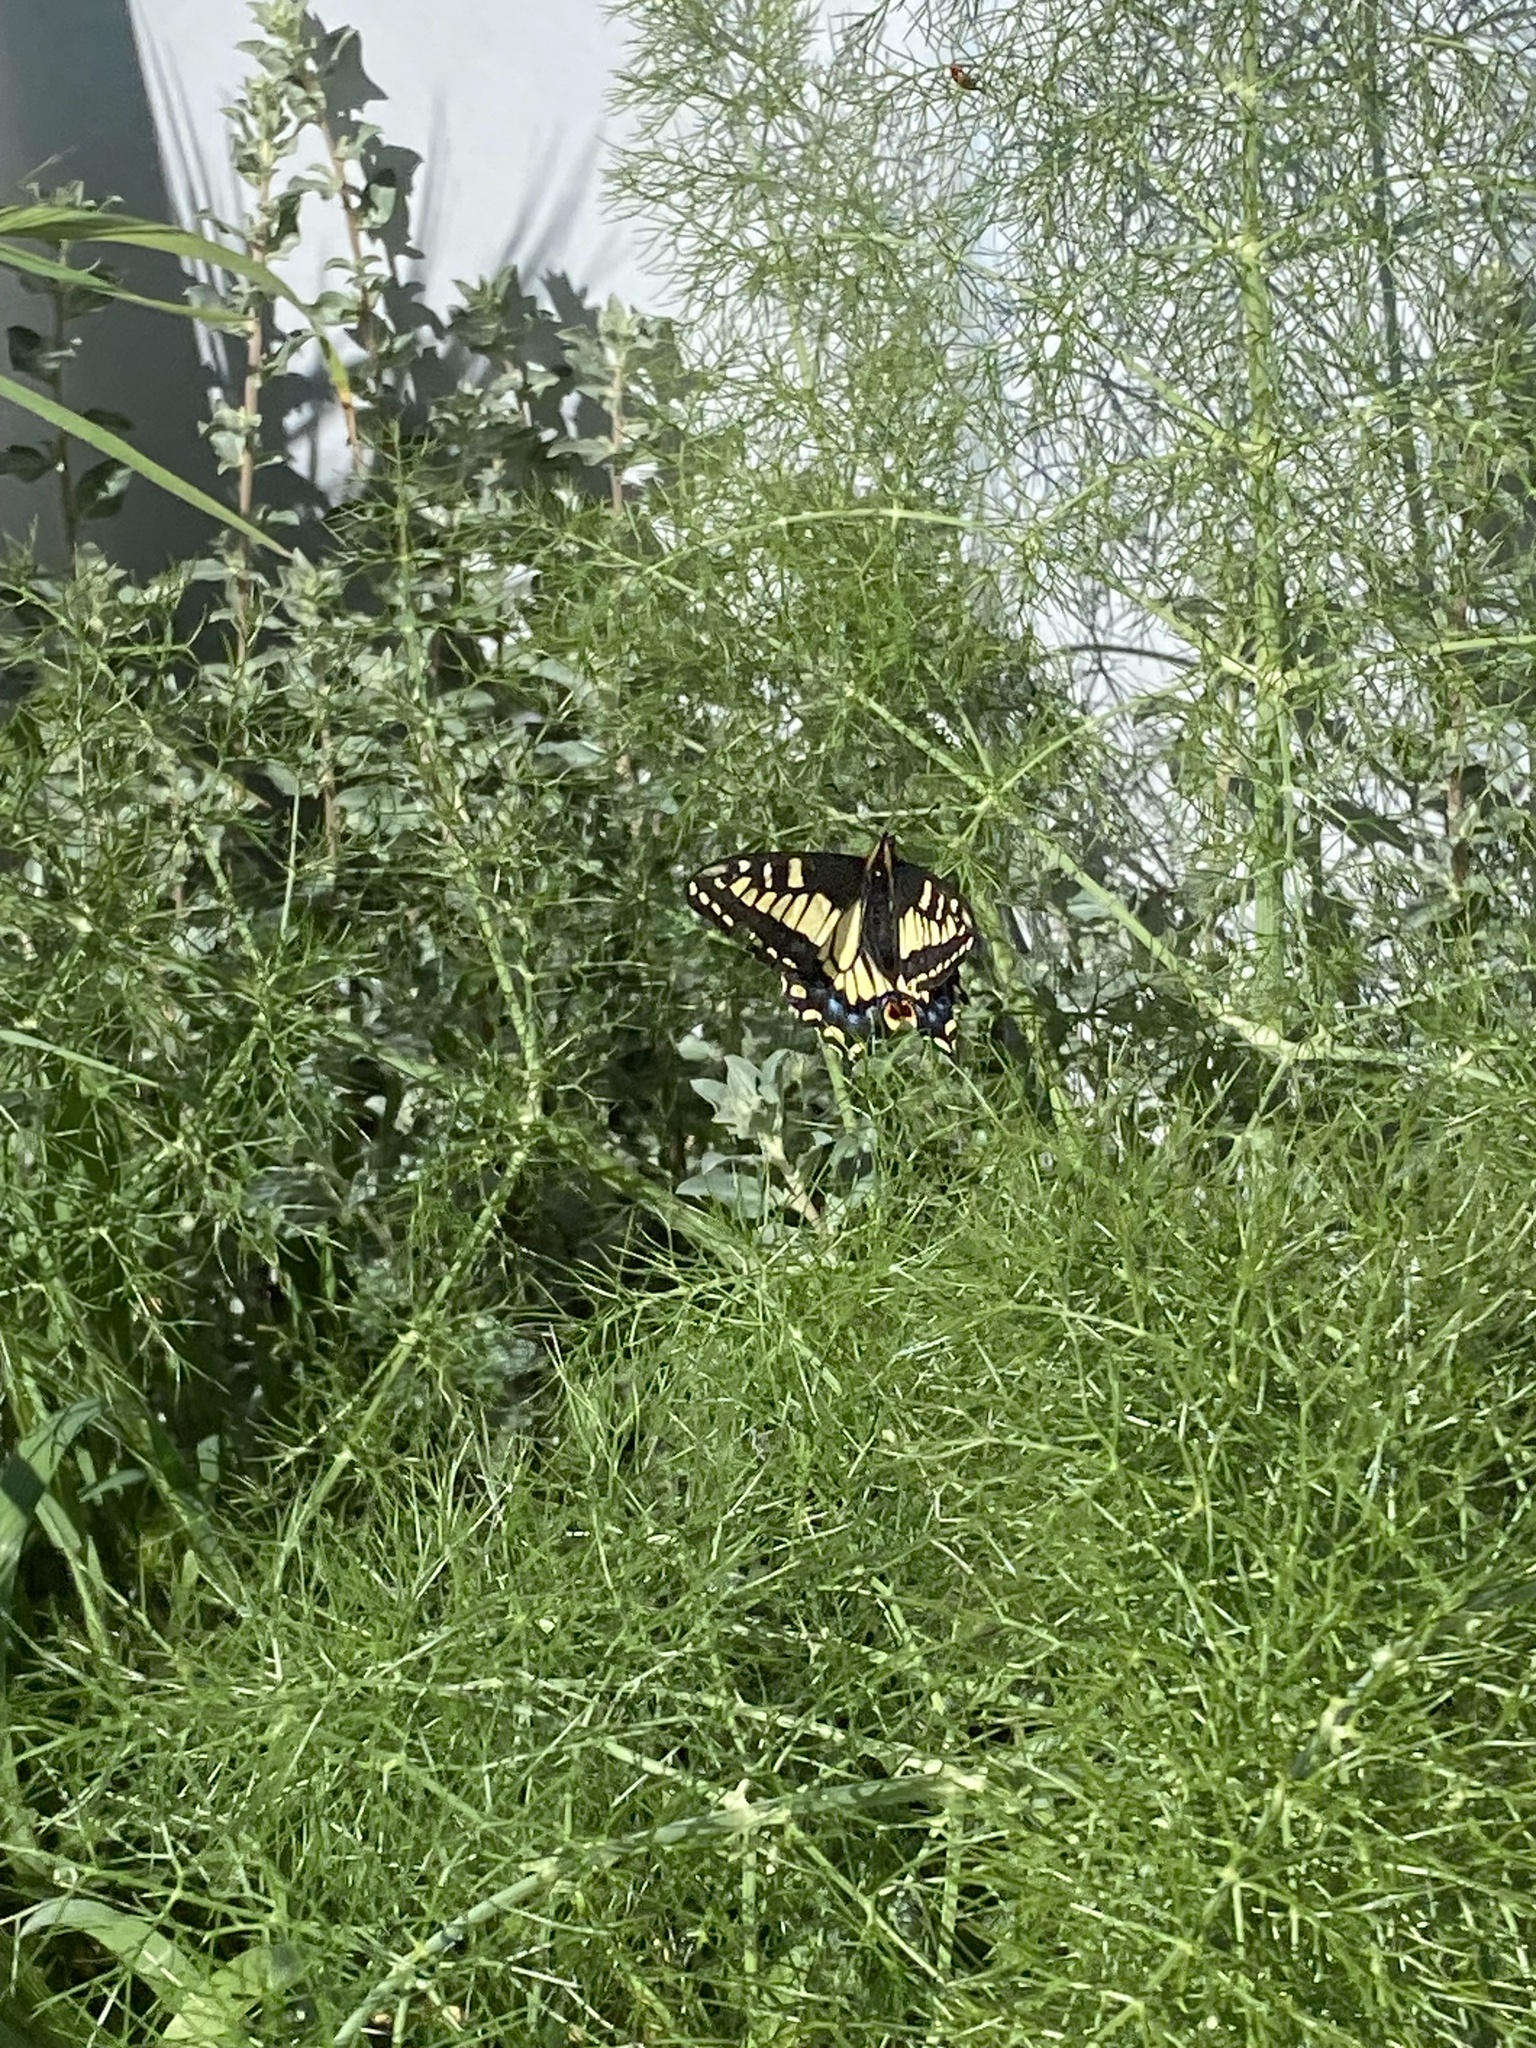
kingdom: Animalia
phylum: Arthropoda
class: Insecta
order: Lepidoptera
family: Papilionidae
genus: Papilio
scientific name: Papilio zelicaon
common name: Anise swallowtail
